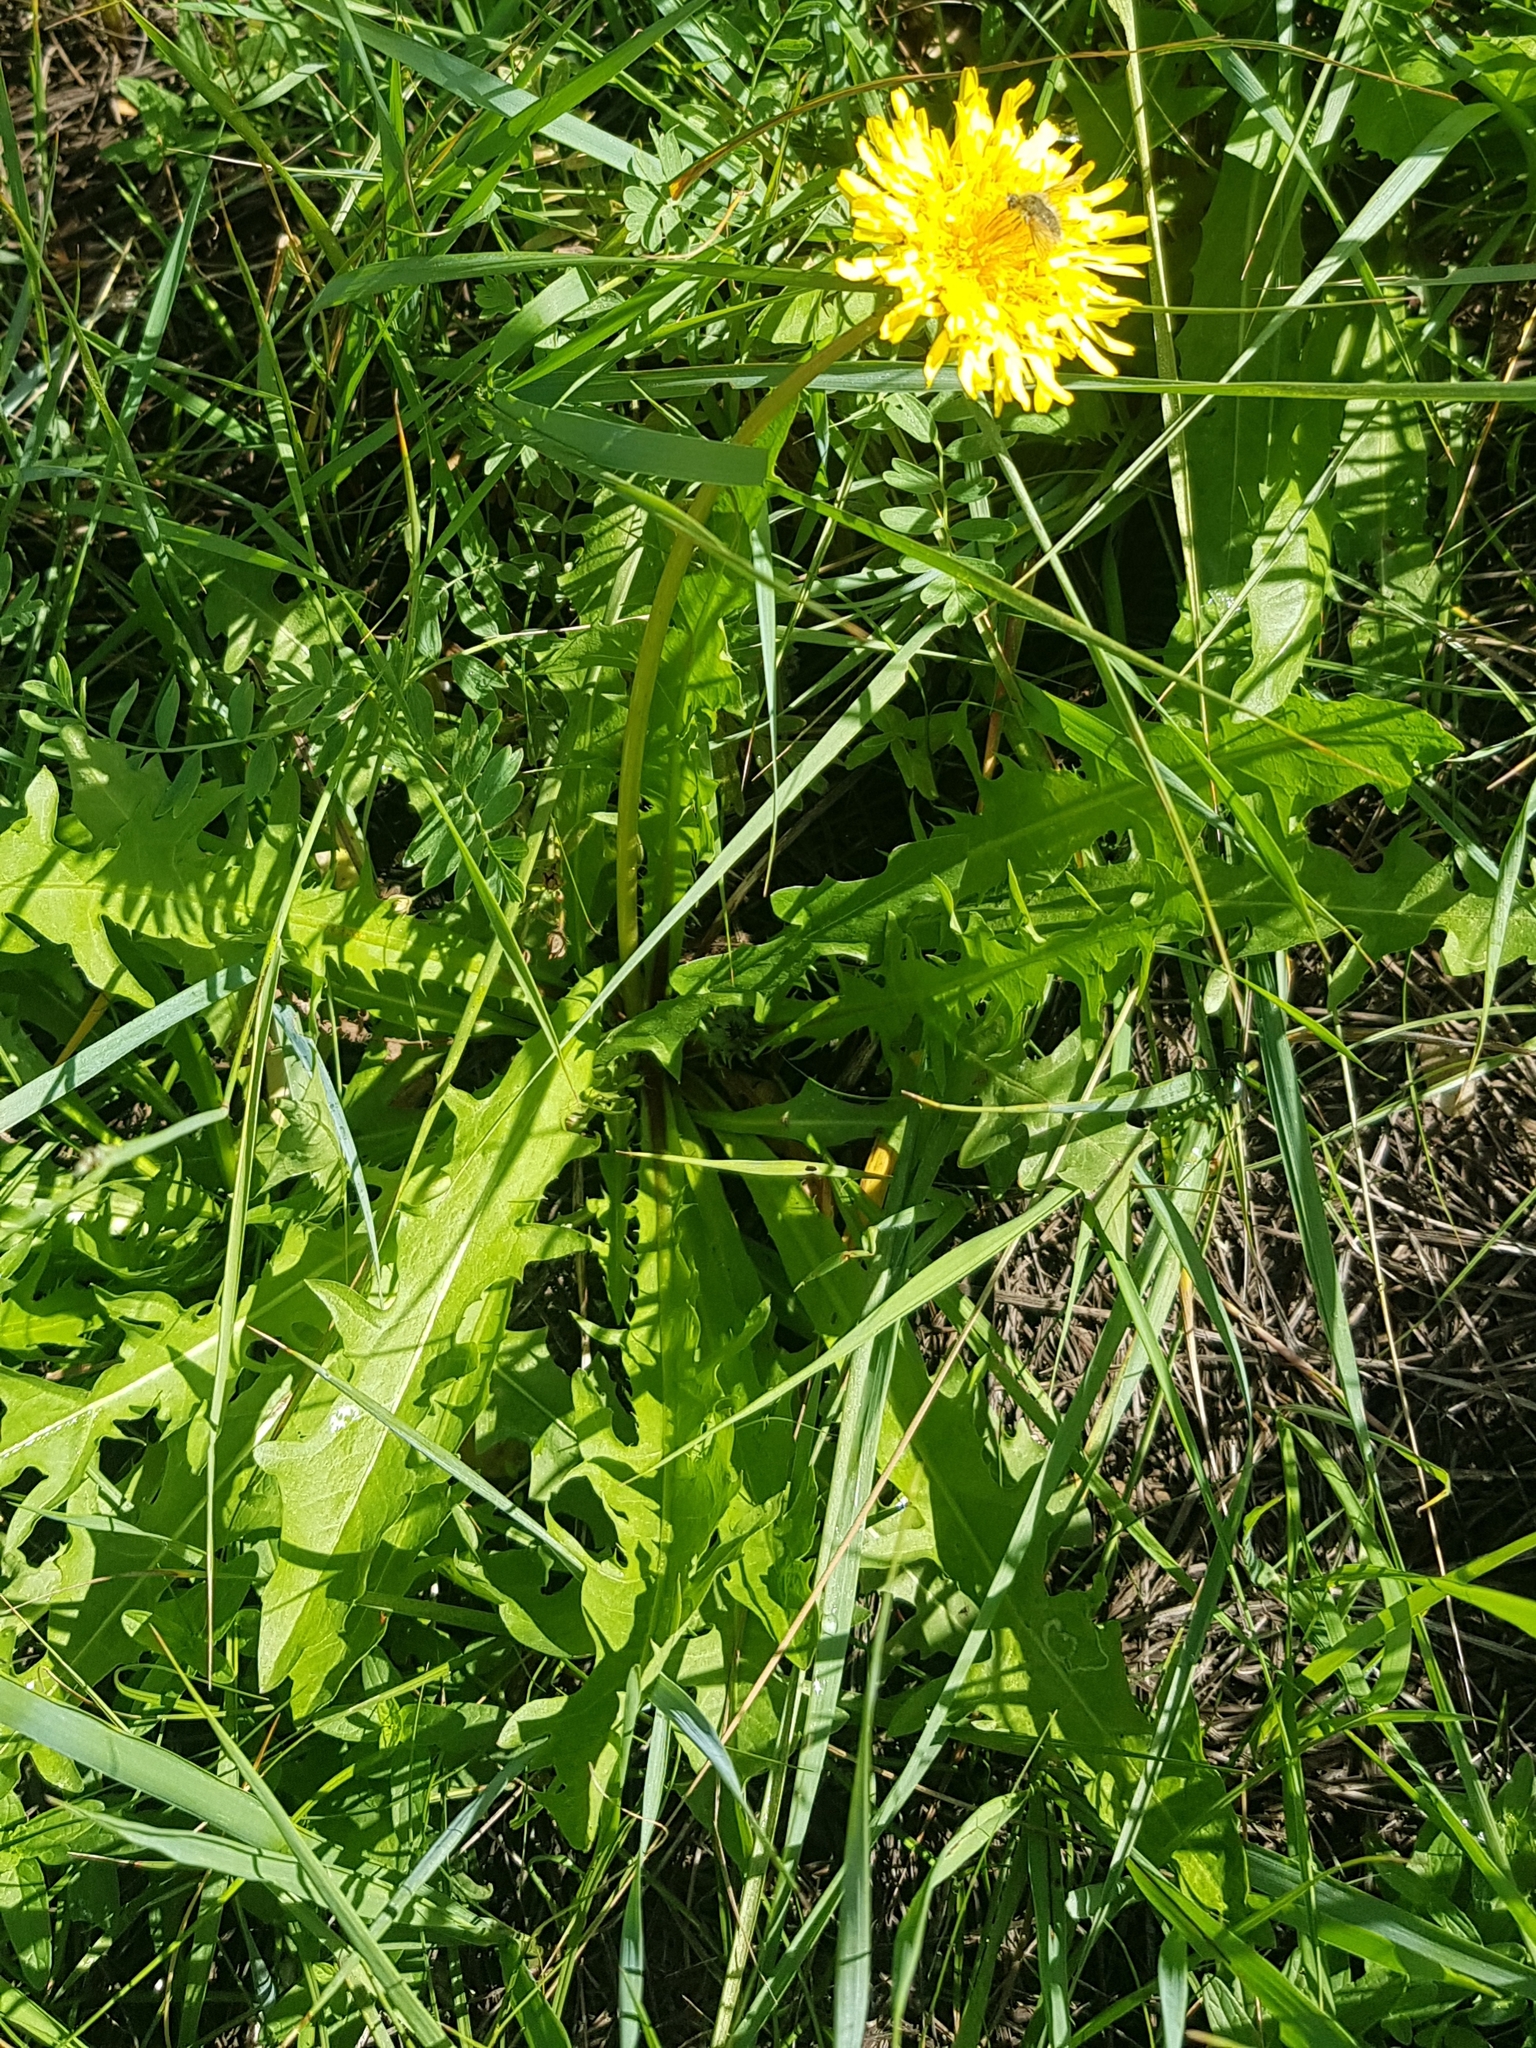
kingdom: Plantae
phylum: Tracheophyta
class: Magnoliopsida
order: Asterales
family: Asteraceae
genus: Taraxacum
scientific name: Taraxacum officinale
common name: Common dandelion
